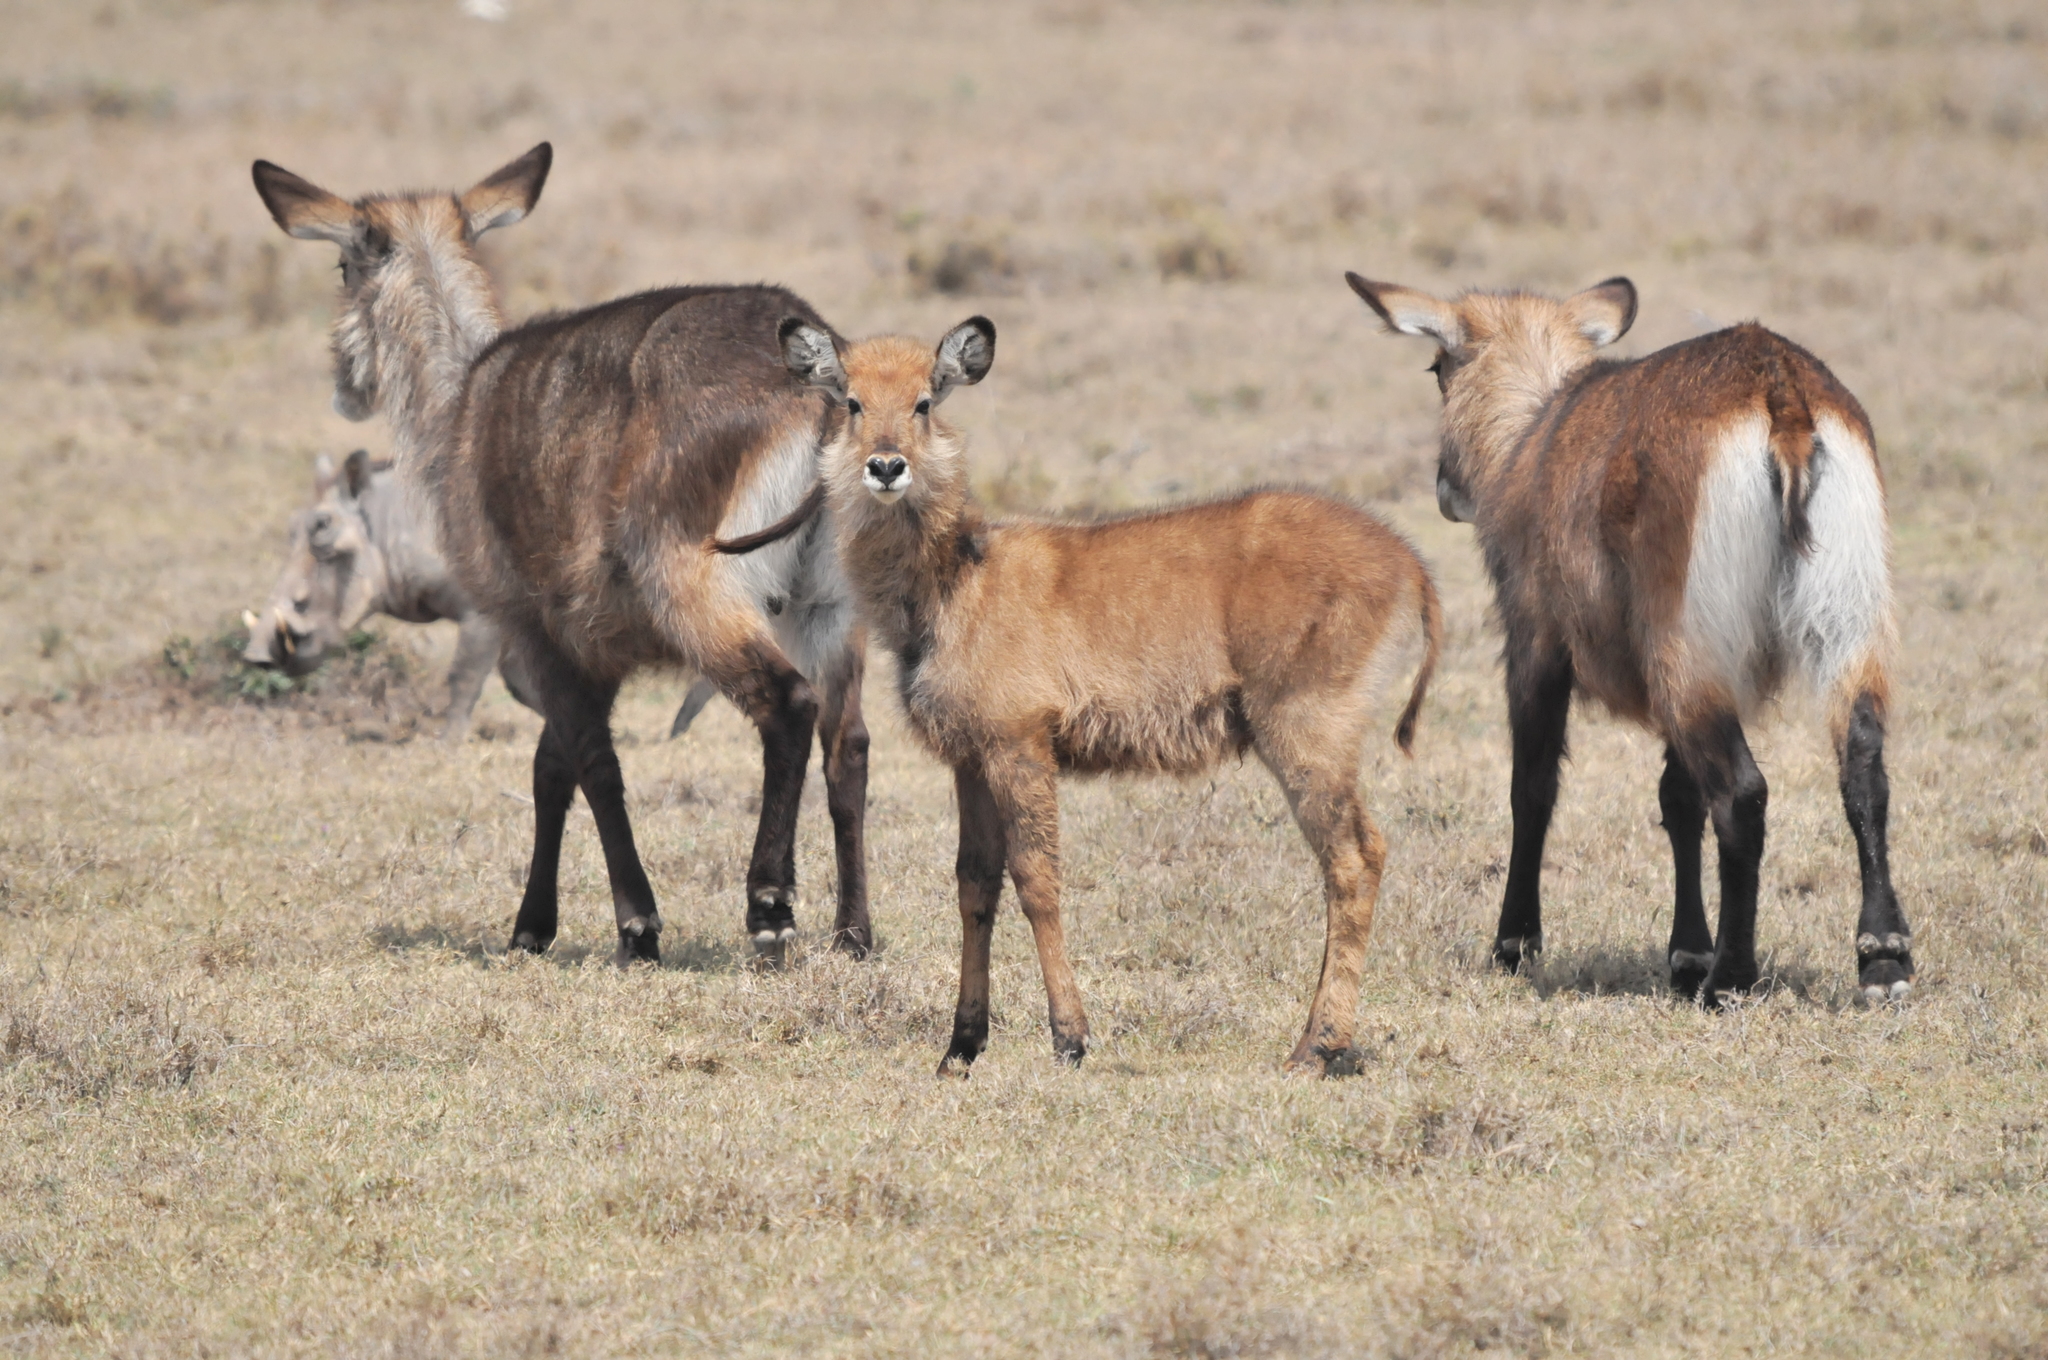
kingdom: Animalia
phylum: Chordata
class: Mammalia
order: Artiodactyla
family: Bovidae
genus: Kobus
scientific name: Kobus ellipsiprymnus
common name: Waterbuck
